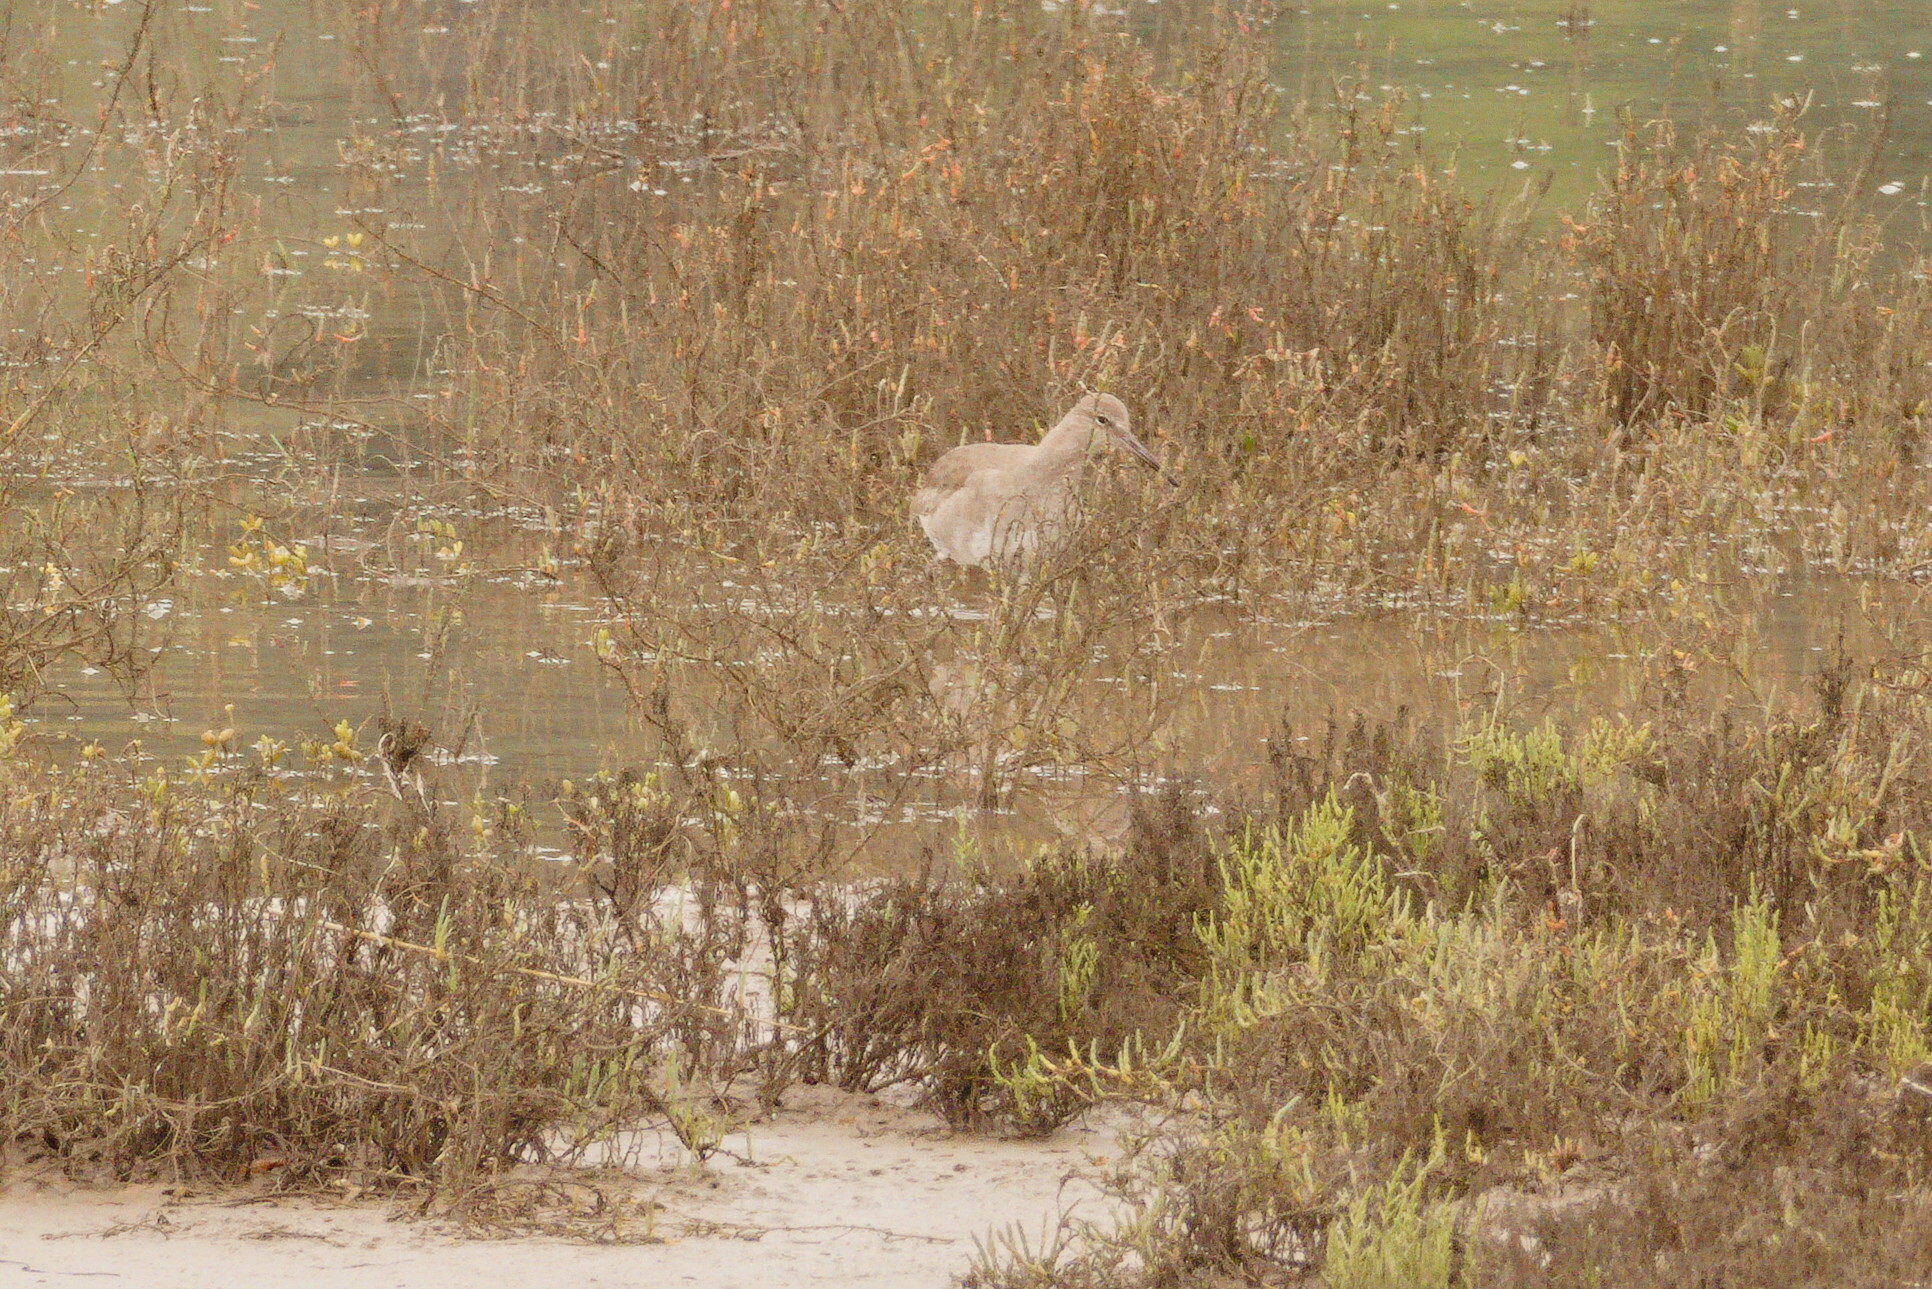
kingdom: Animalia
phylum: Chordata
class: Aves
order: Charadriiformes
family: Scolopacidae
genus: Tringa
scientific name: Tringa semipalmata
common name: Willet
